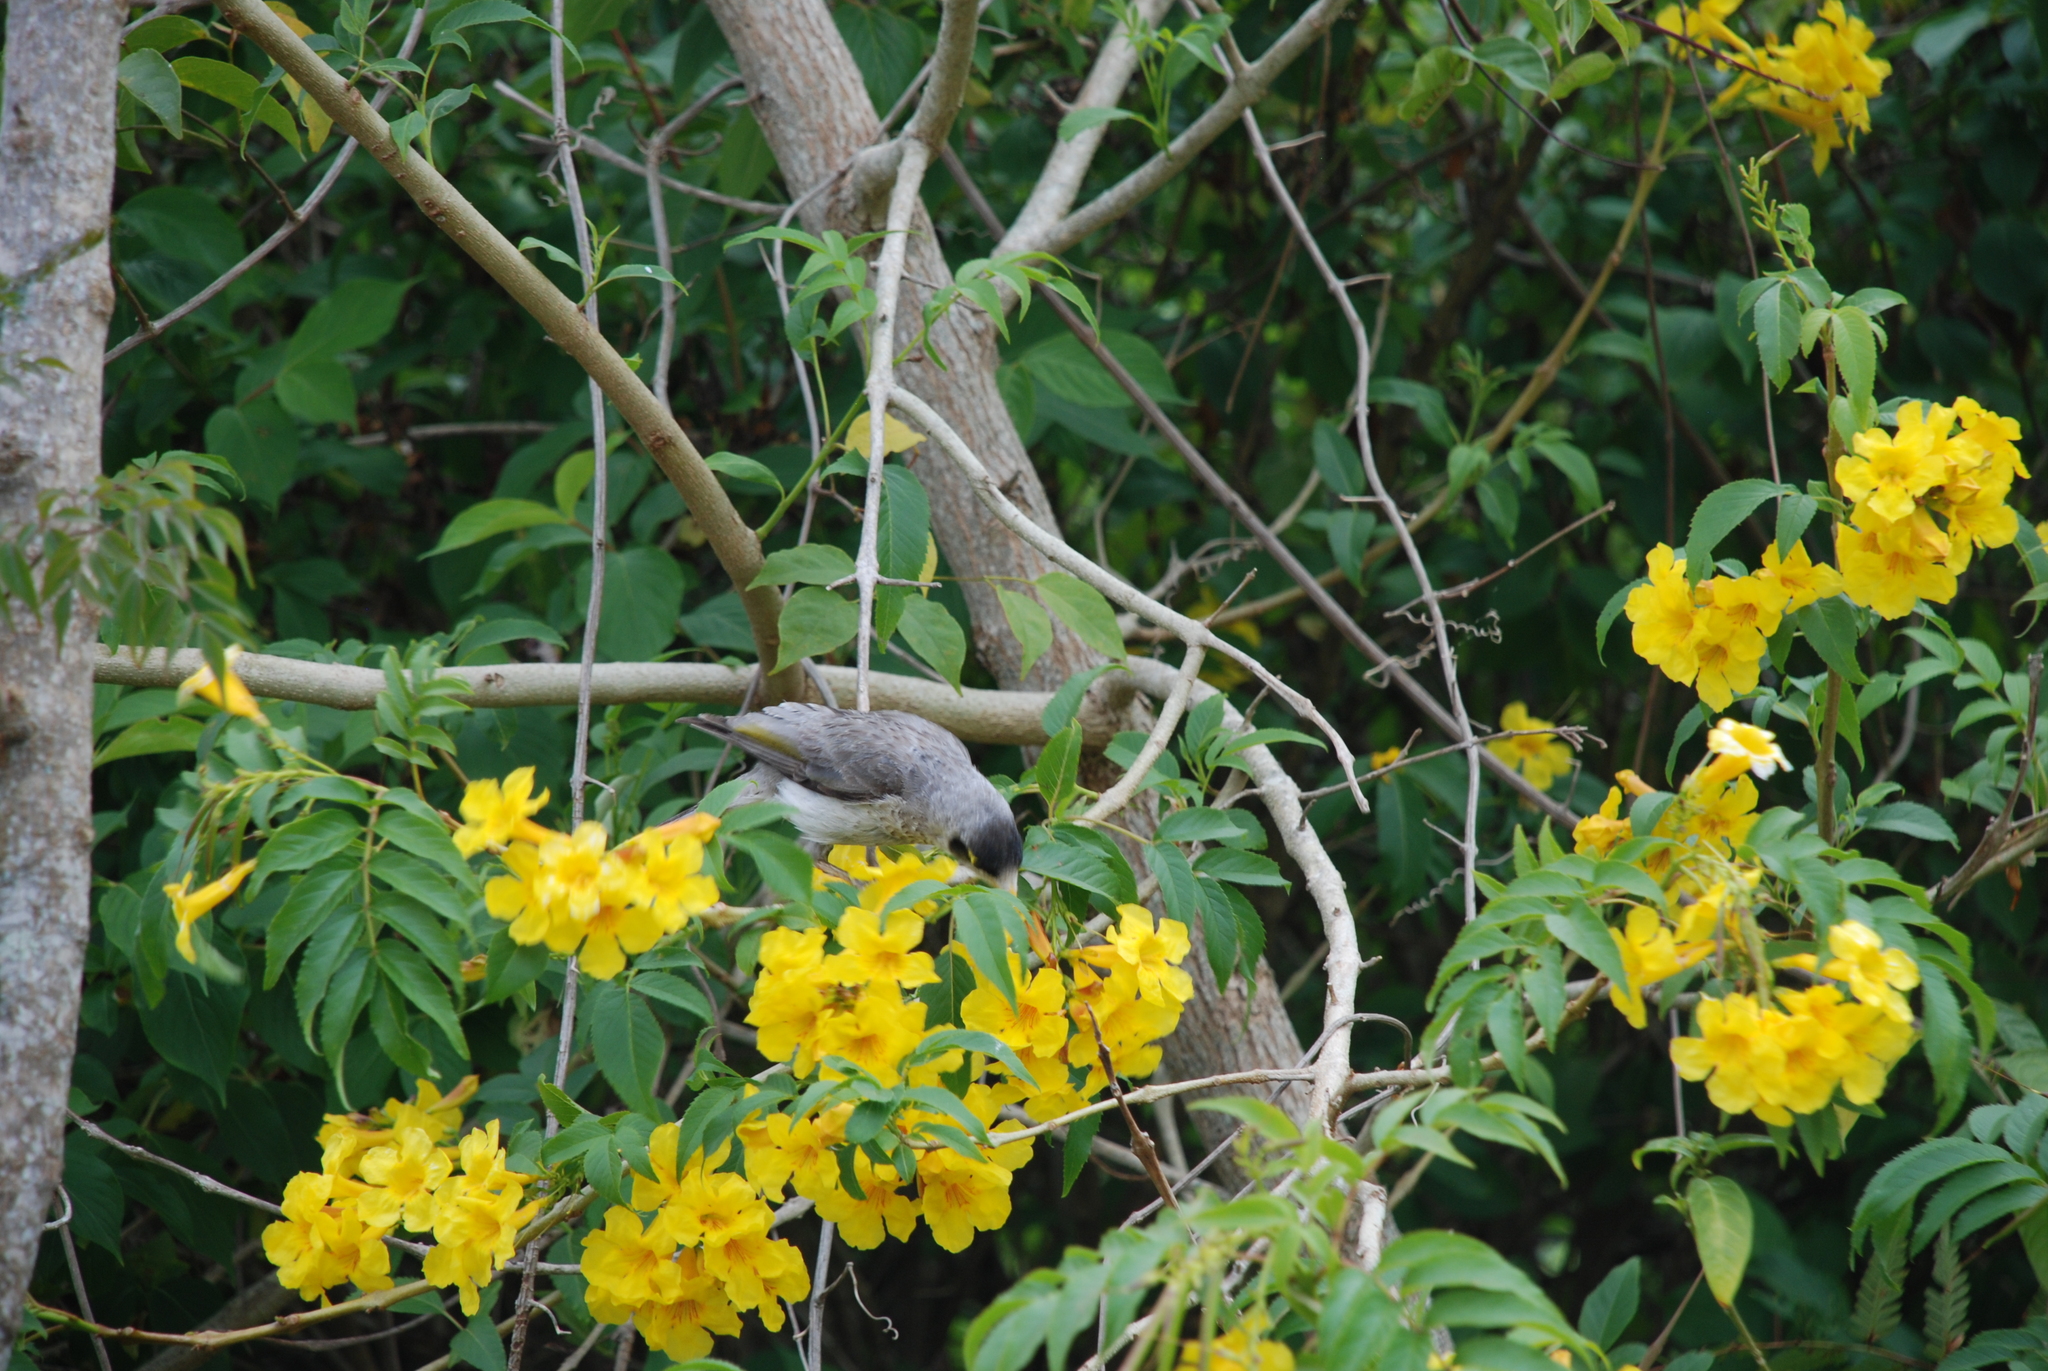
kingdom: Animalia
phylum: Chordata
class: Aves
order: Passeriformes
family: Meliphagidae
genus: Manorina
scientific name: Manorina melanocephala
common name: Noisy miner
